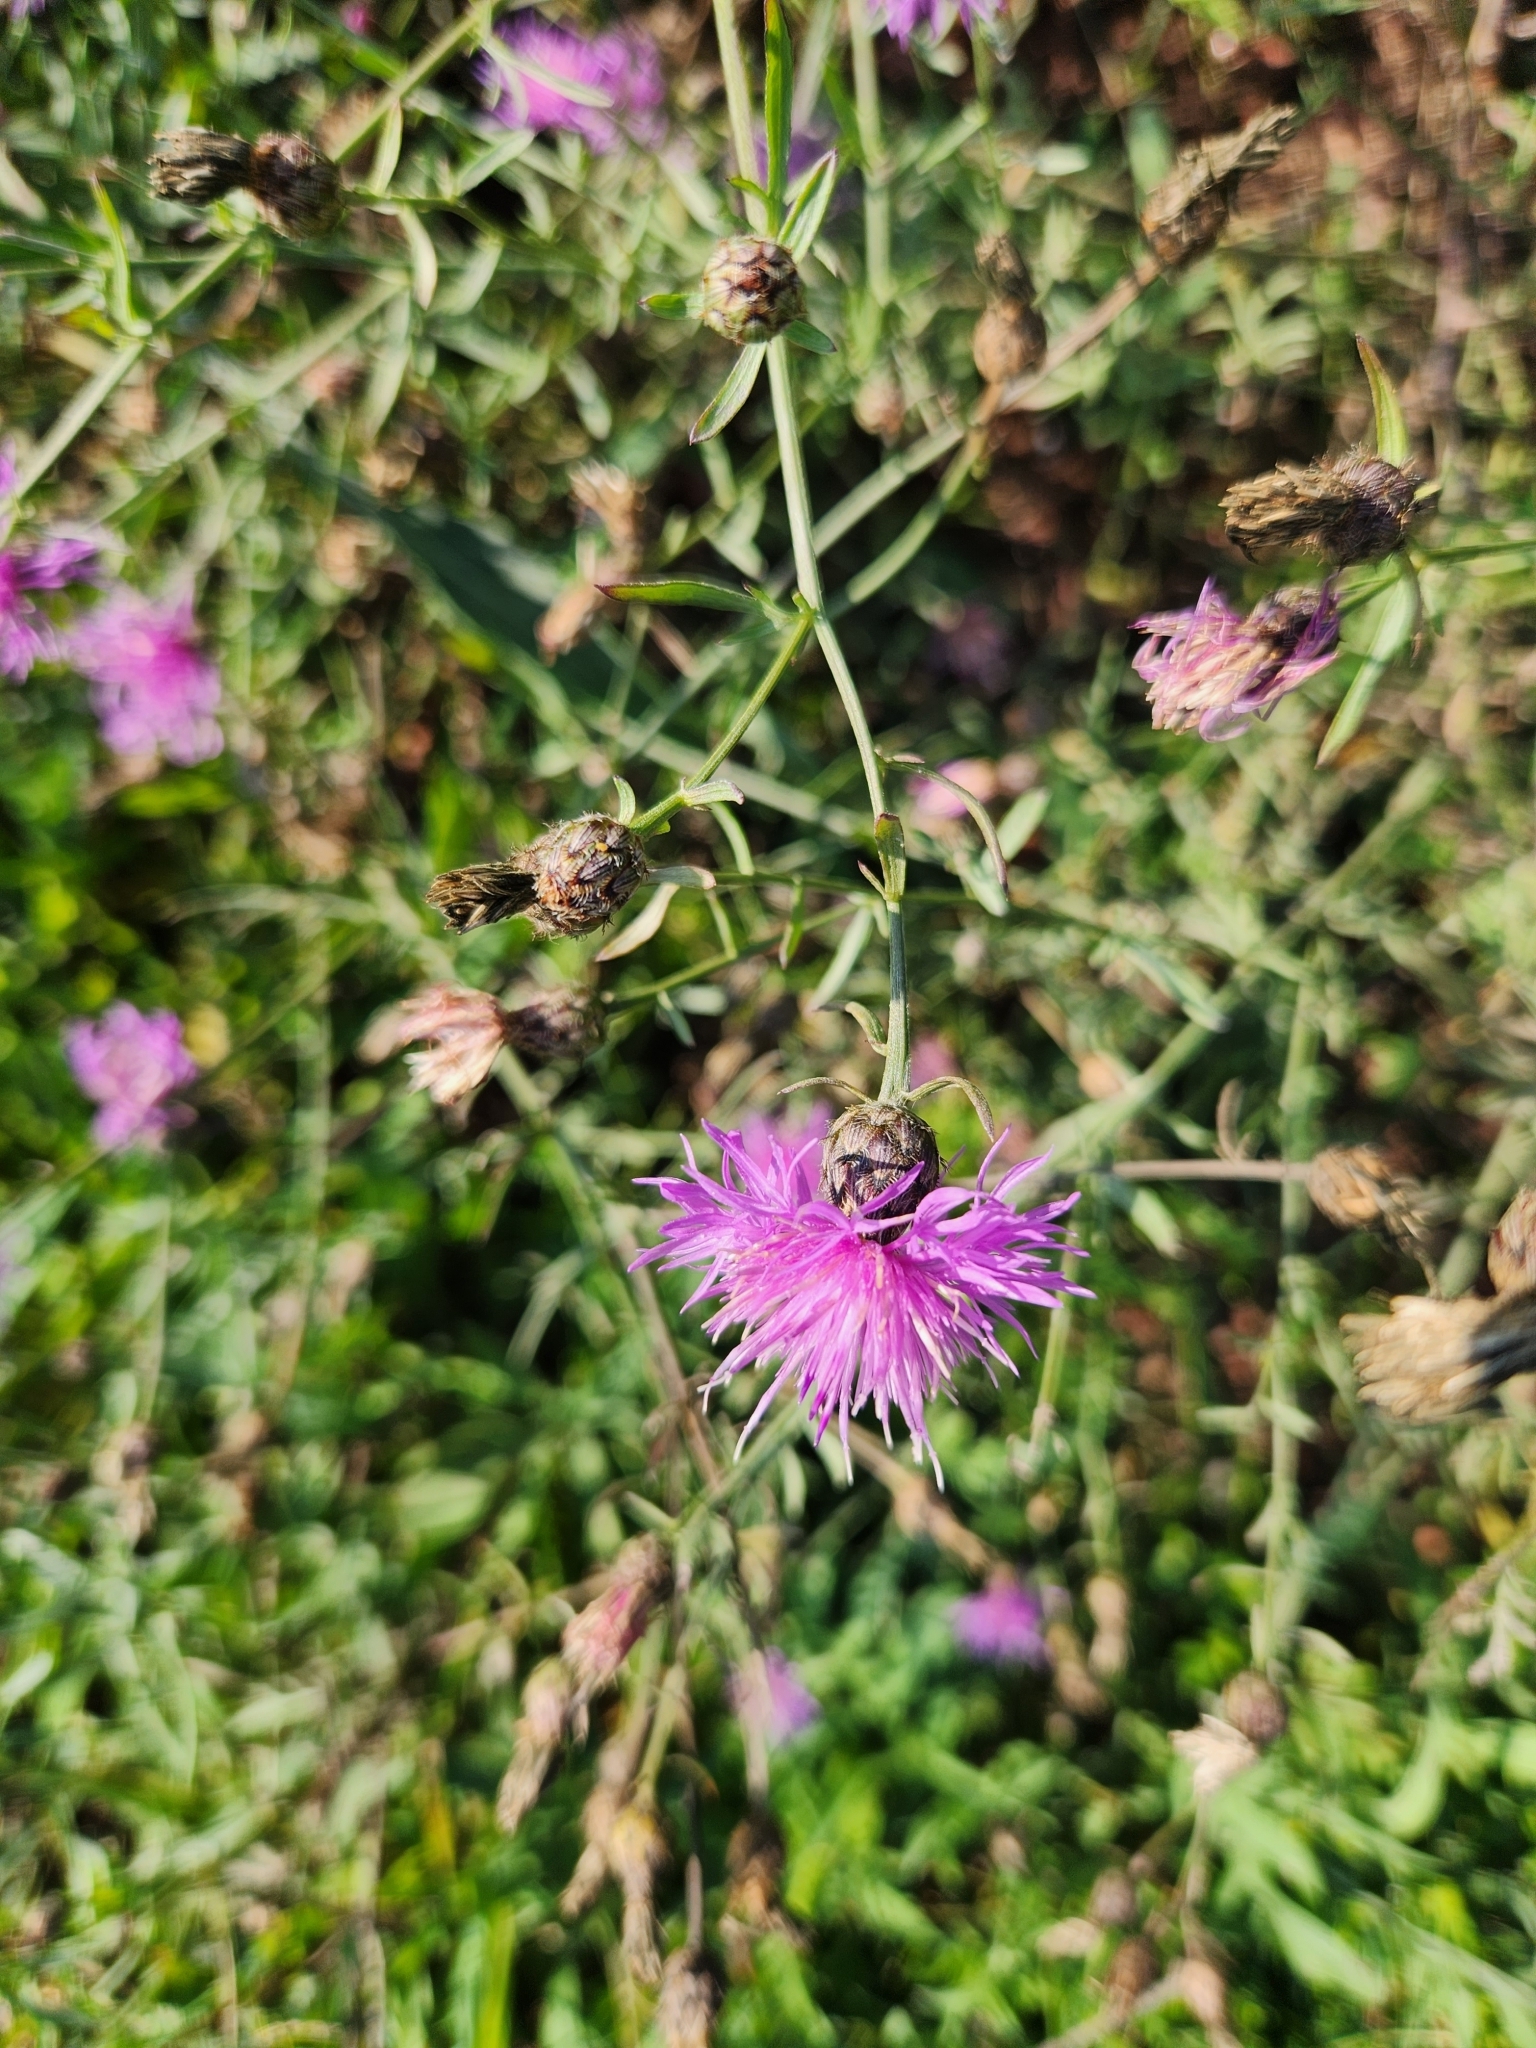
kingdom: Plantae
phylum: Tracheophyta
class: Magnoliopsida
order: Asterales
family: Asteraceae
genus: Centaurea
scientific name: Centaurea stoebe
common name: Spotted knapweed
